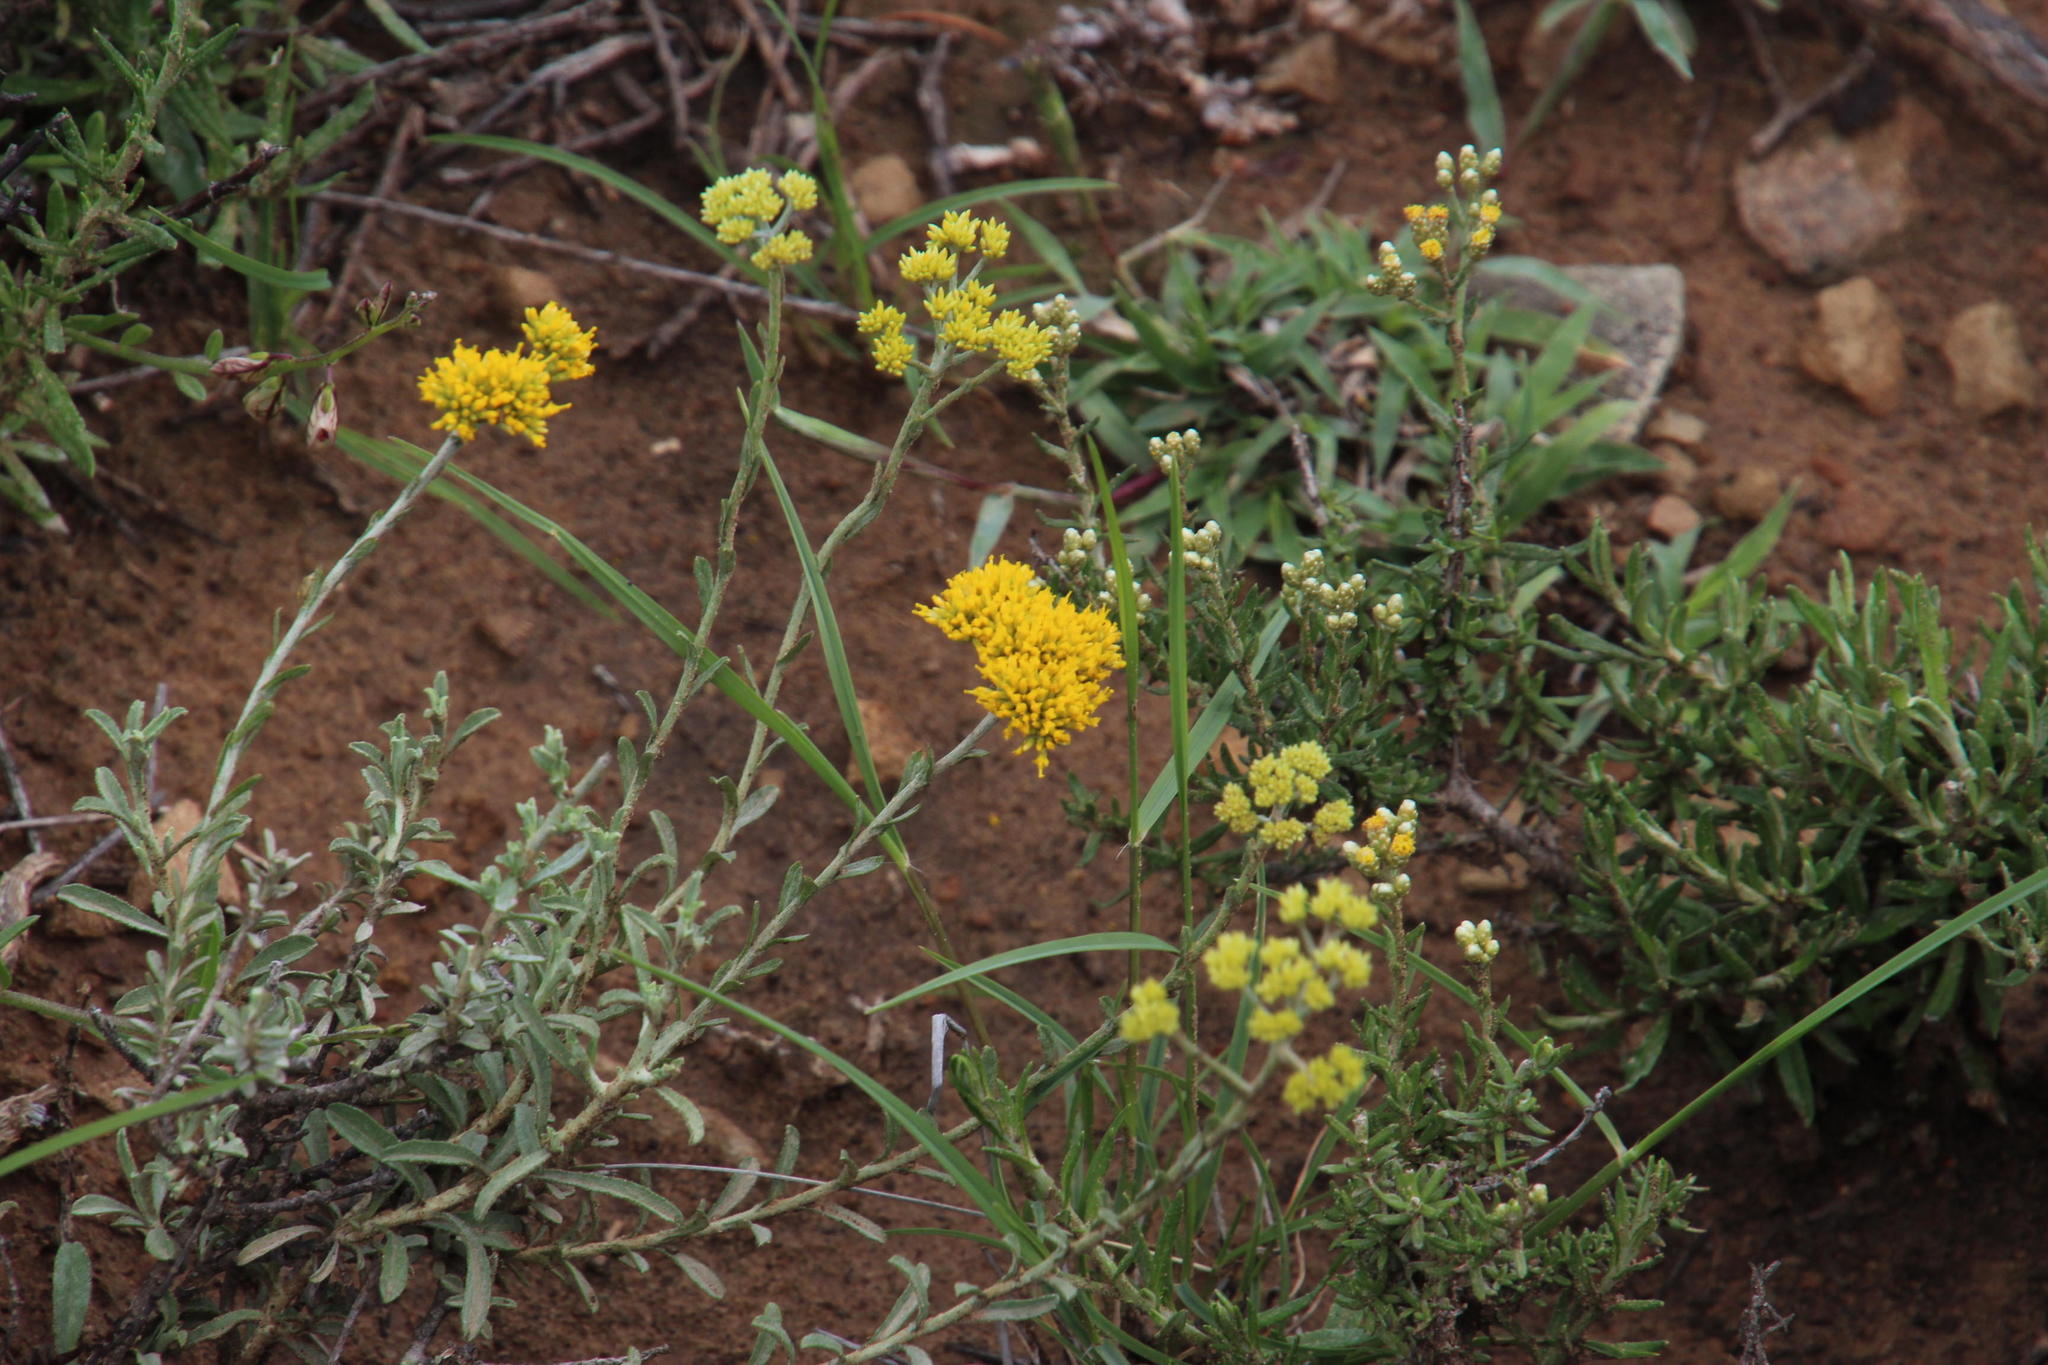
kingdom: Plantae
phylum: Tracheophyta
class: Magnoliopsida
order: Asterales
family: Asteraceae
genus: Helichrysum
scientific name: Helichrysum rutilans
